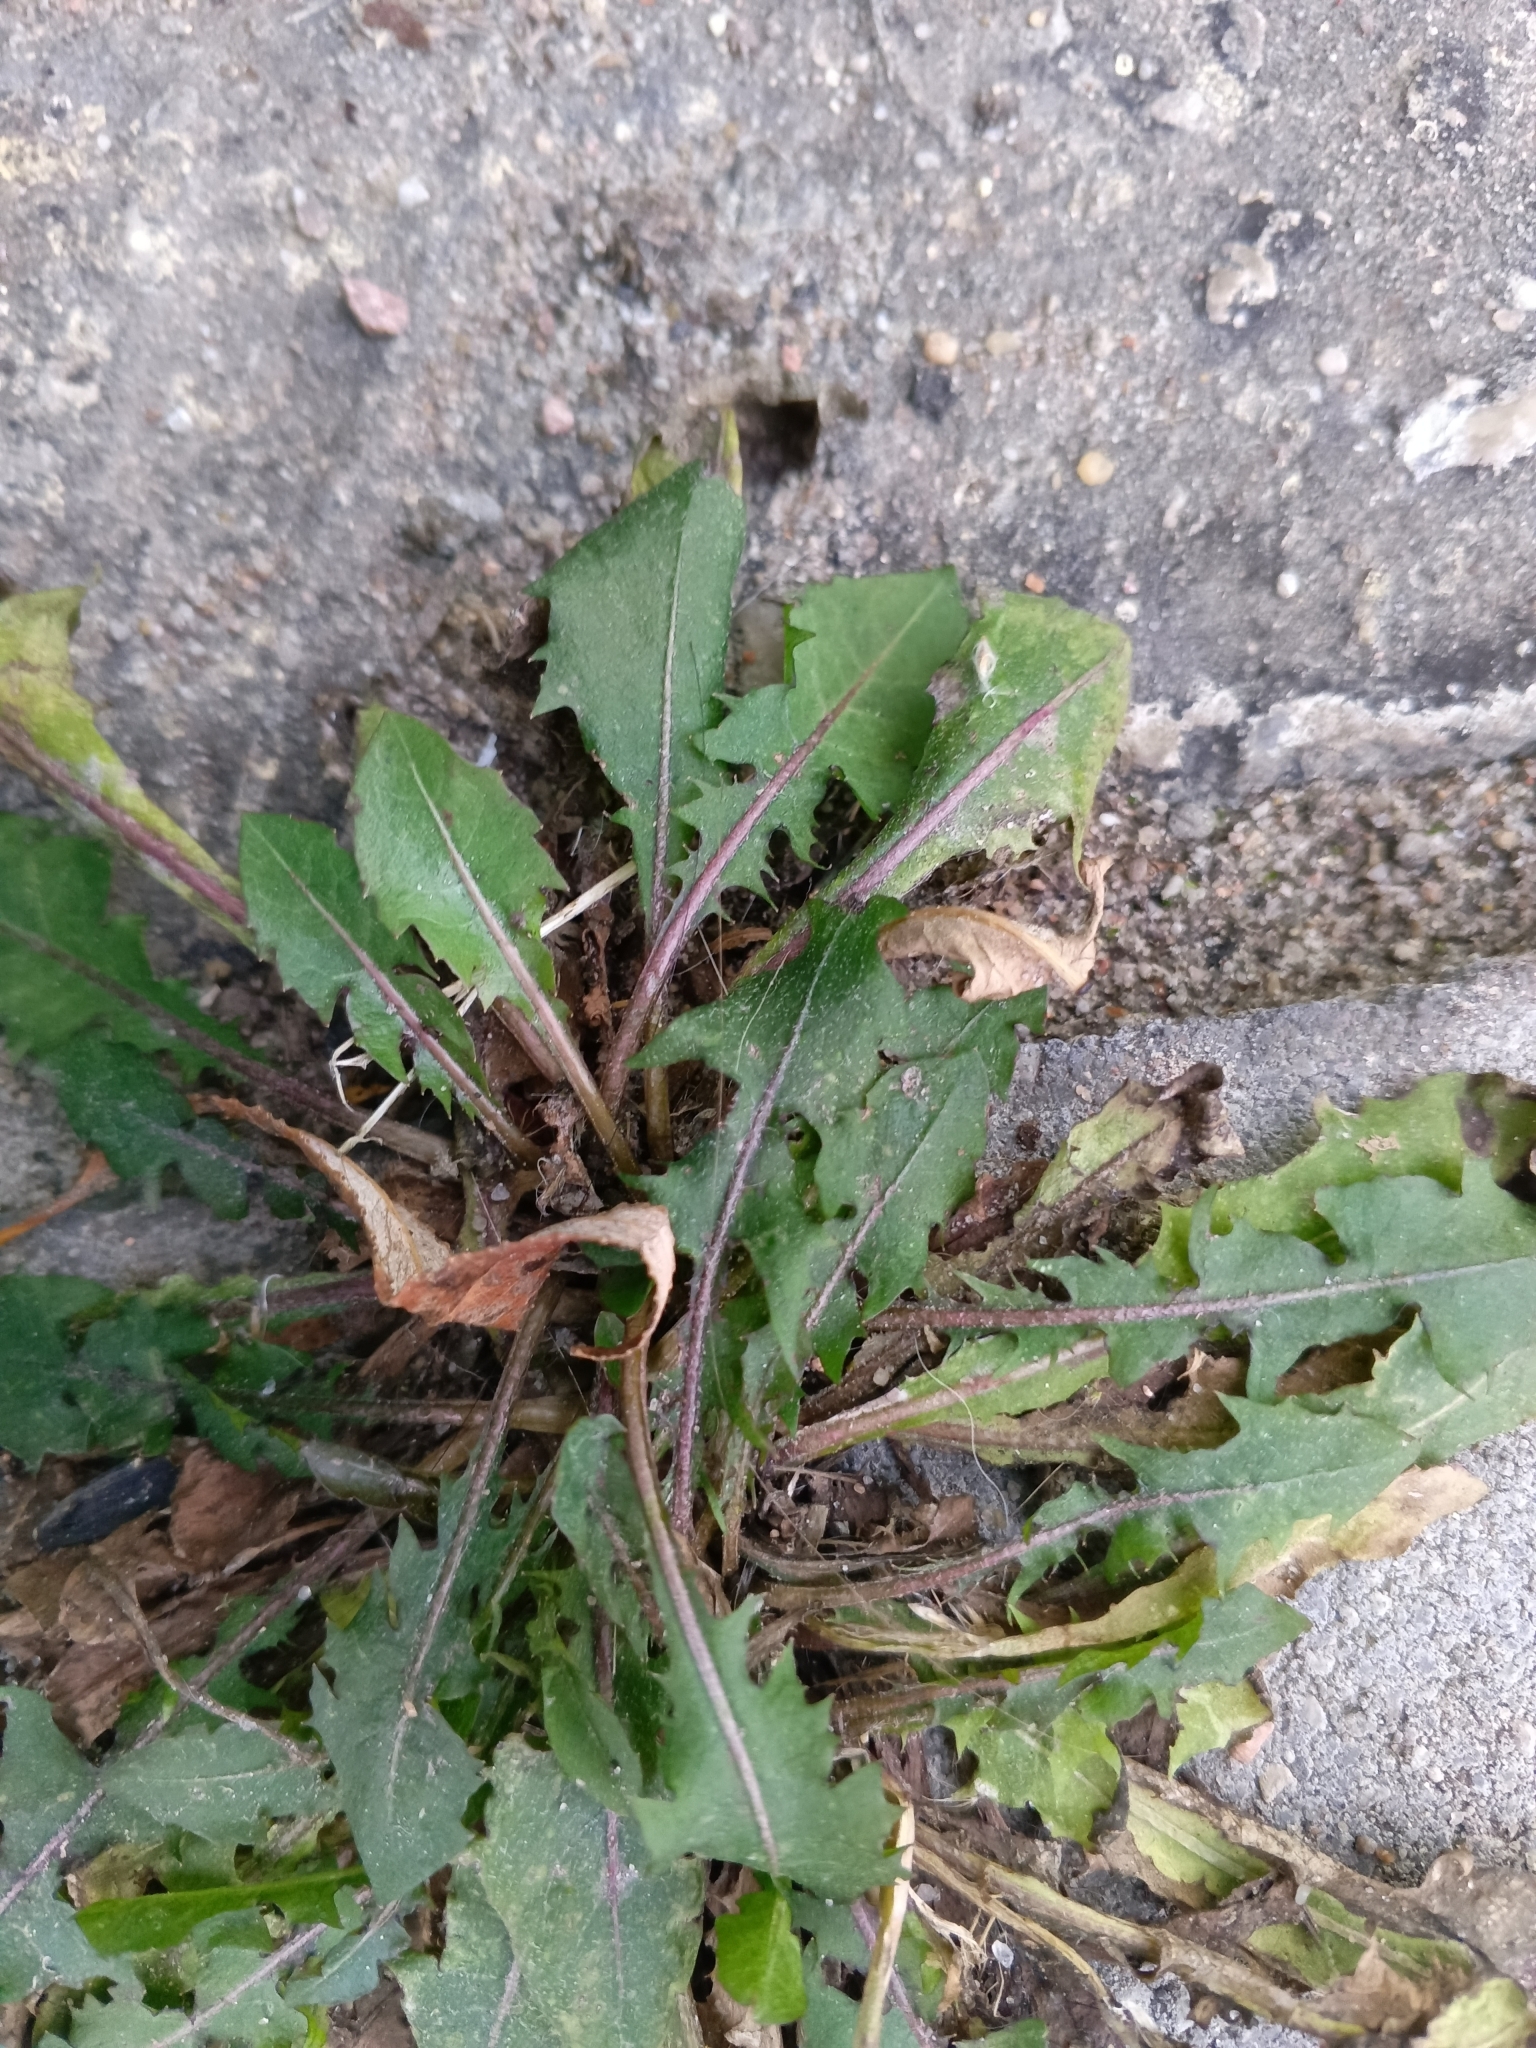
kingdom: Plantae
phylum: Tracheophyta
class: Magnoliopsida
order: Asterales
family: Asteraceae
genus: Taraxacum
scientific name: Taraxacum officinale
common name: Common dandelion
